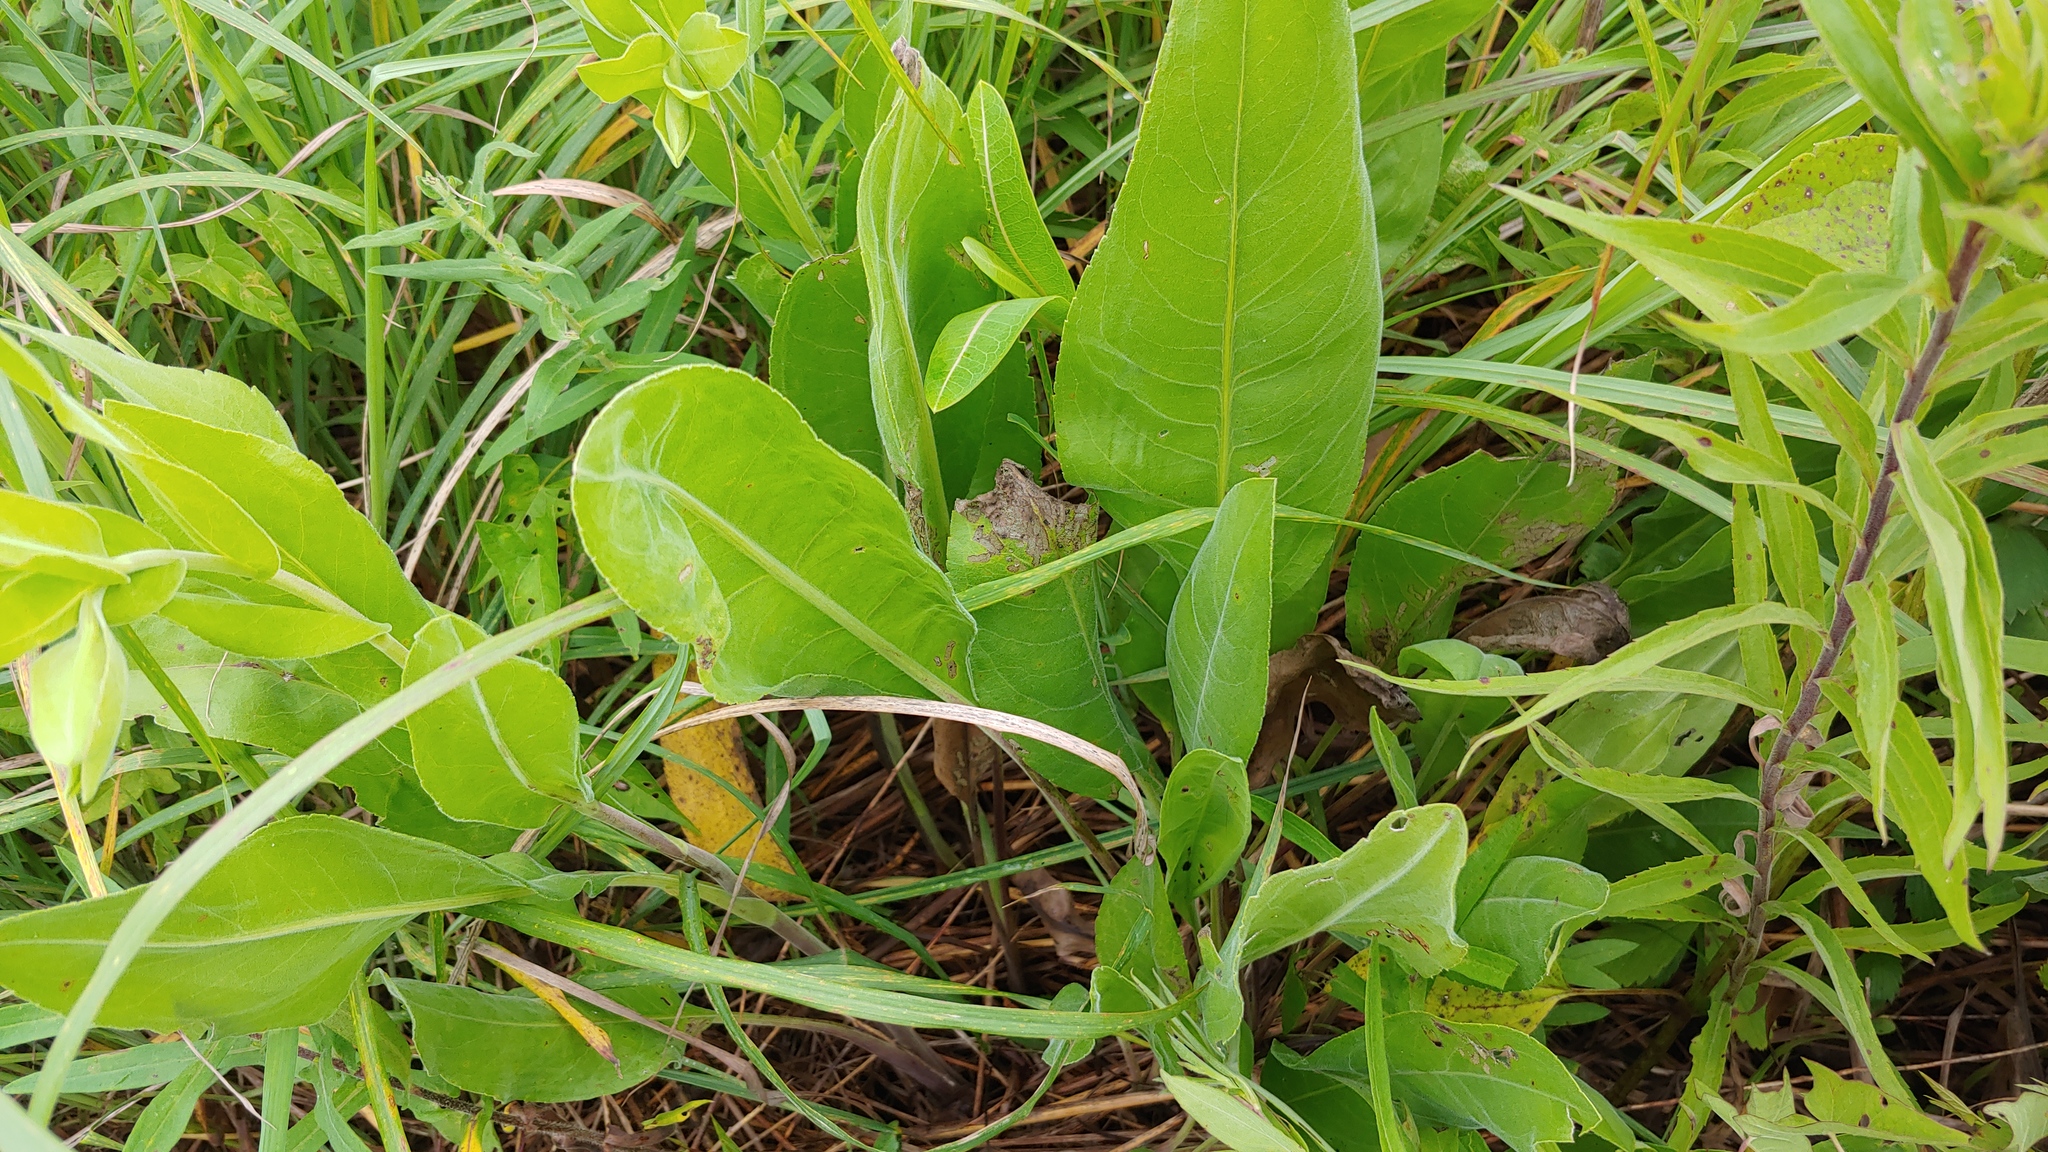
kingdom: Plantae
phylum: Tracheophyta
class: Magnoliopsida
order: Asterales
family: Asteraceae
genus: Solidago
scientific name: Solidago rigida
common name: Rigid goldenrod
